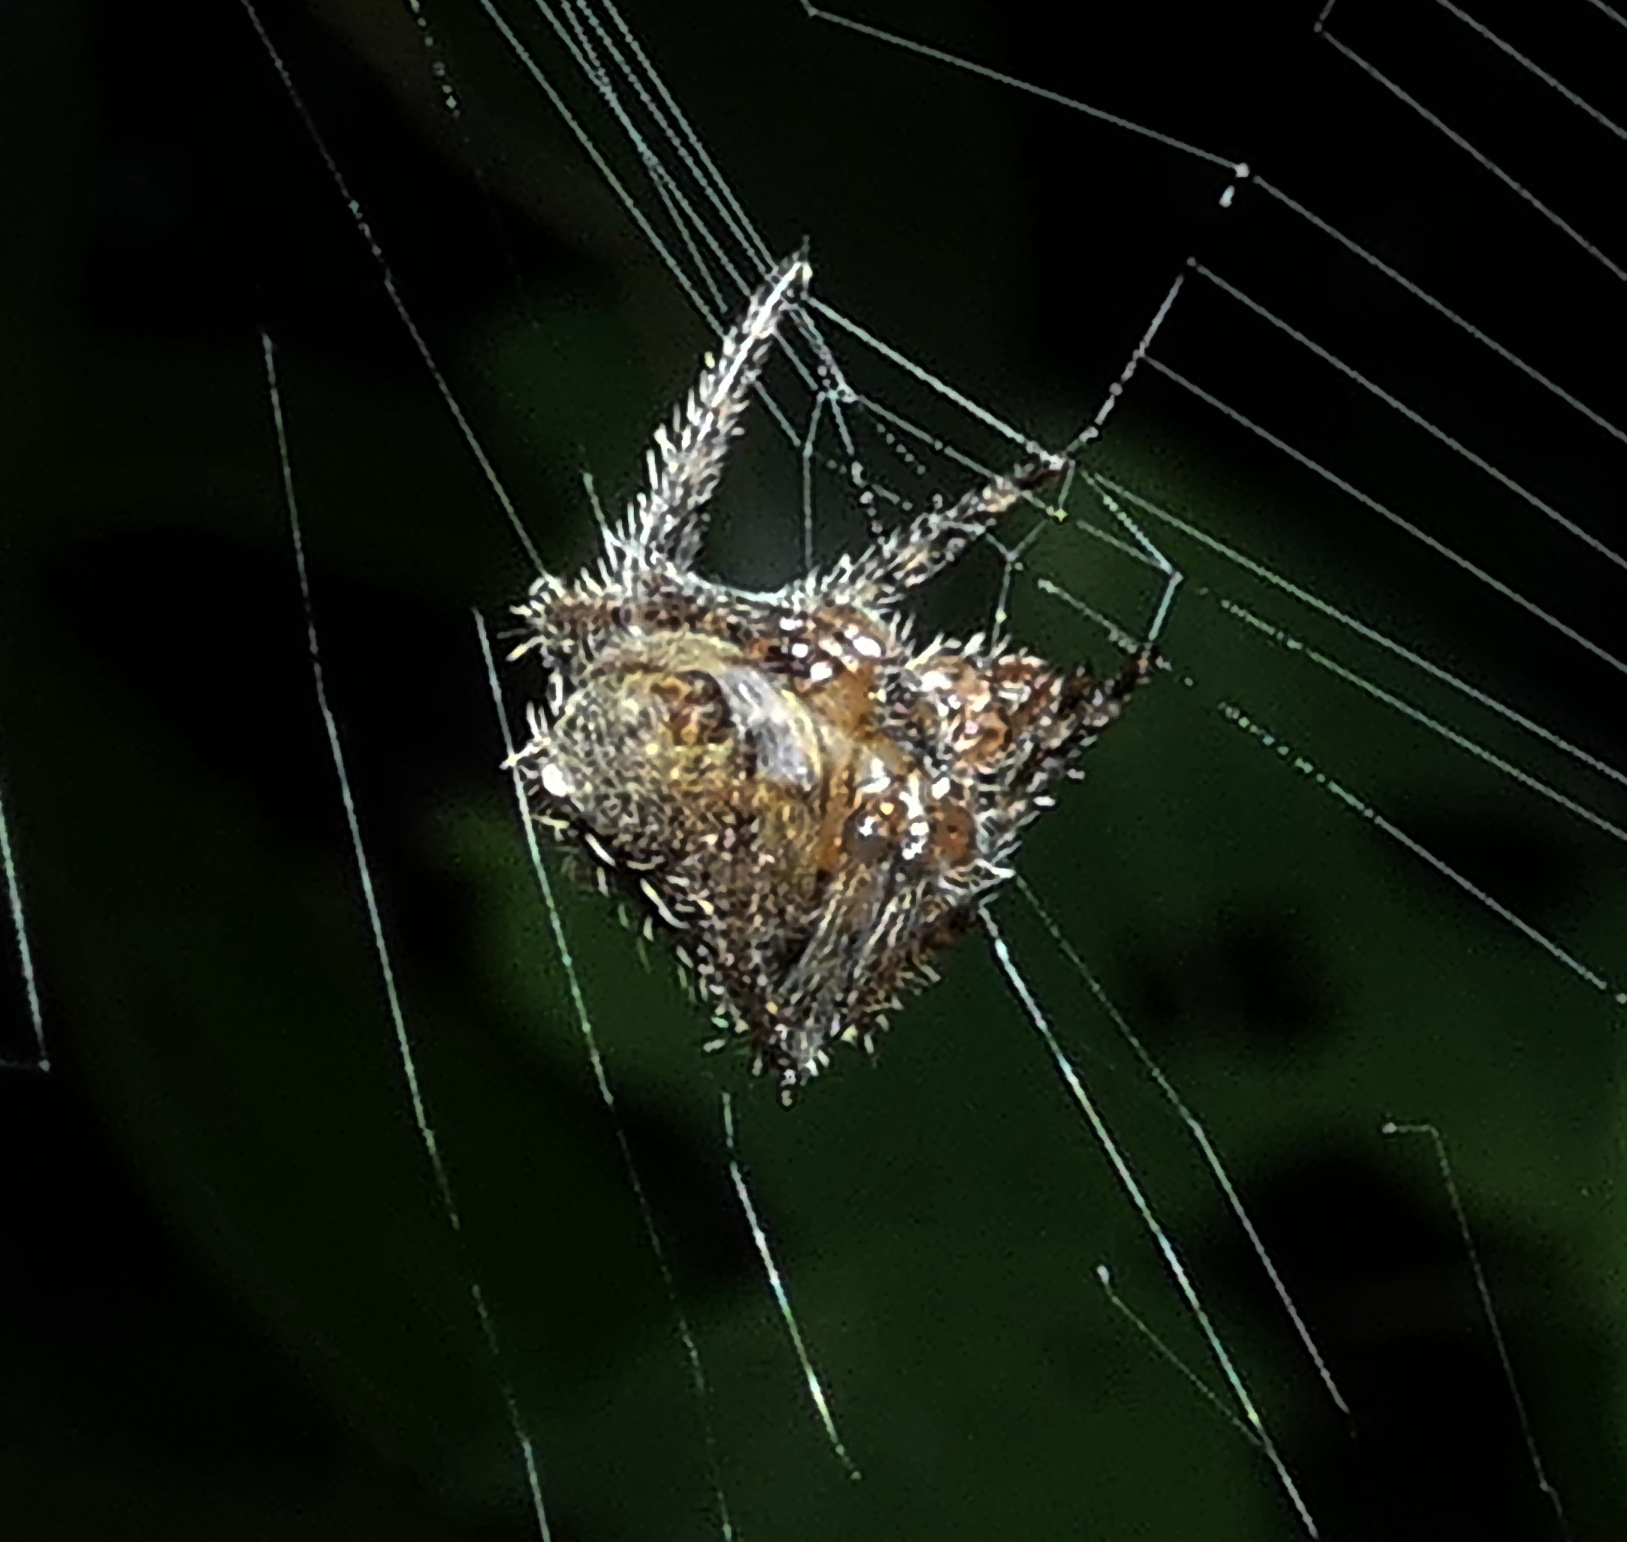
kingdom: Animalia
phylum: Arthropoda
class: Arachnida
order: Araneae
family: Araneidae
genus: Eriophora
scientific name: Eriophora edax
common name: Orb weavers
